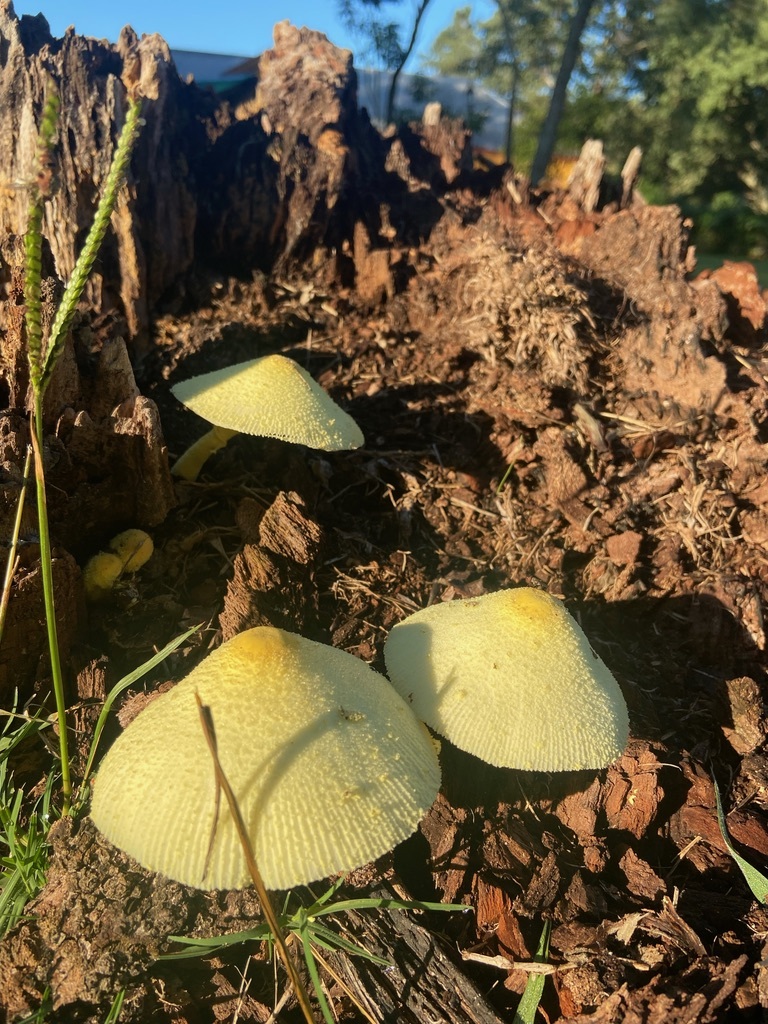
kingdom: Fungi
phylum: Basidiomycota
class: Agaricomycetes
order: Agaricales
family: Agaricaceae
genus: Leucocoprinus
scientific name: Leucocoprinus birnbaumii
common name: Plantpot dapperling
